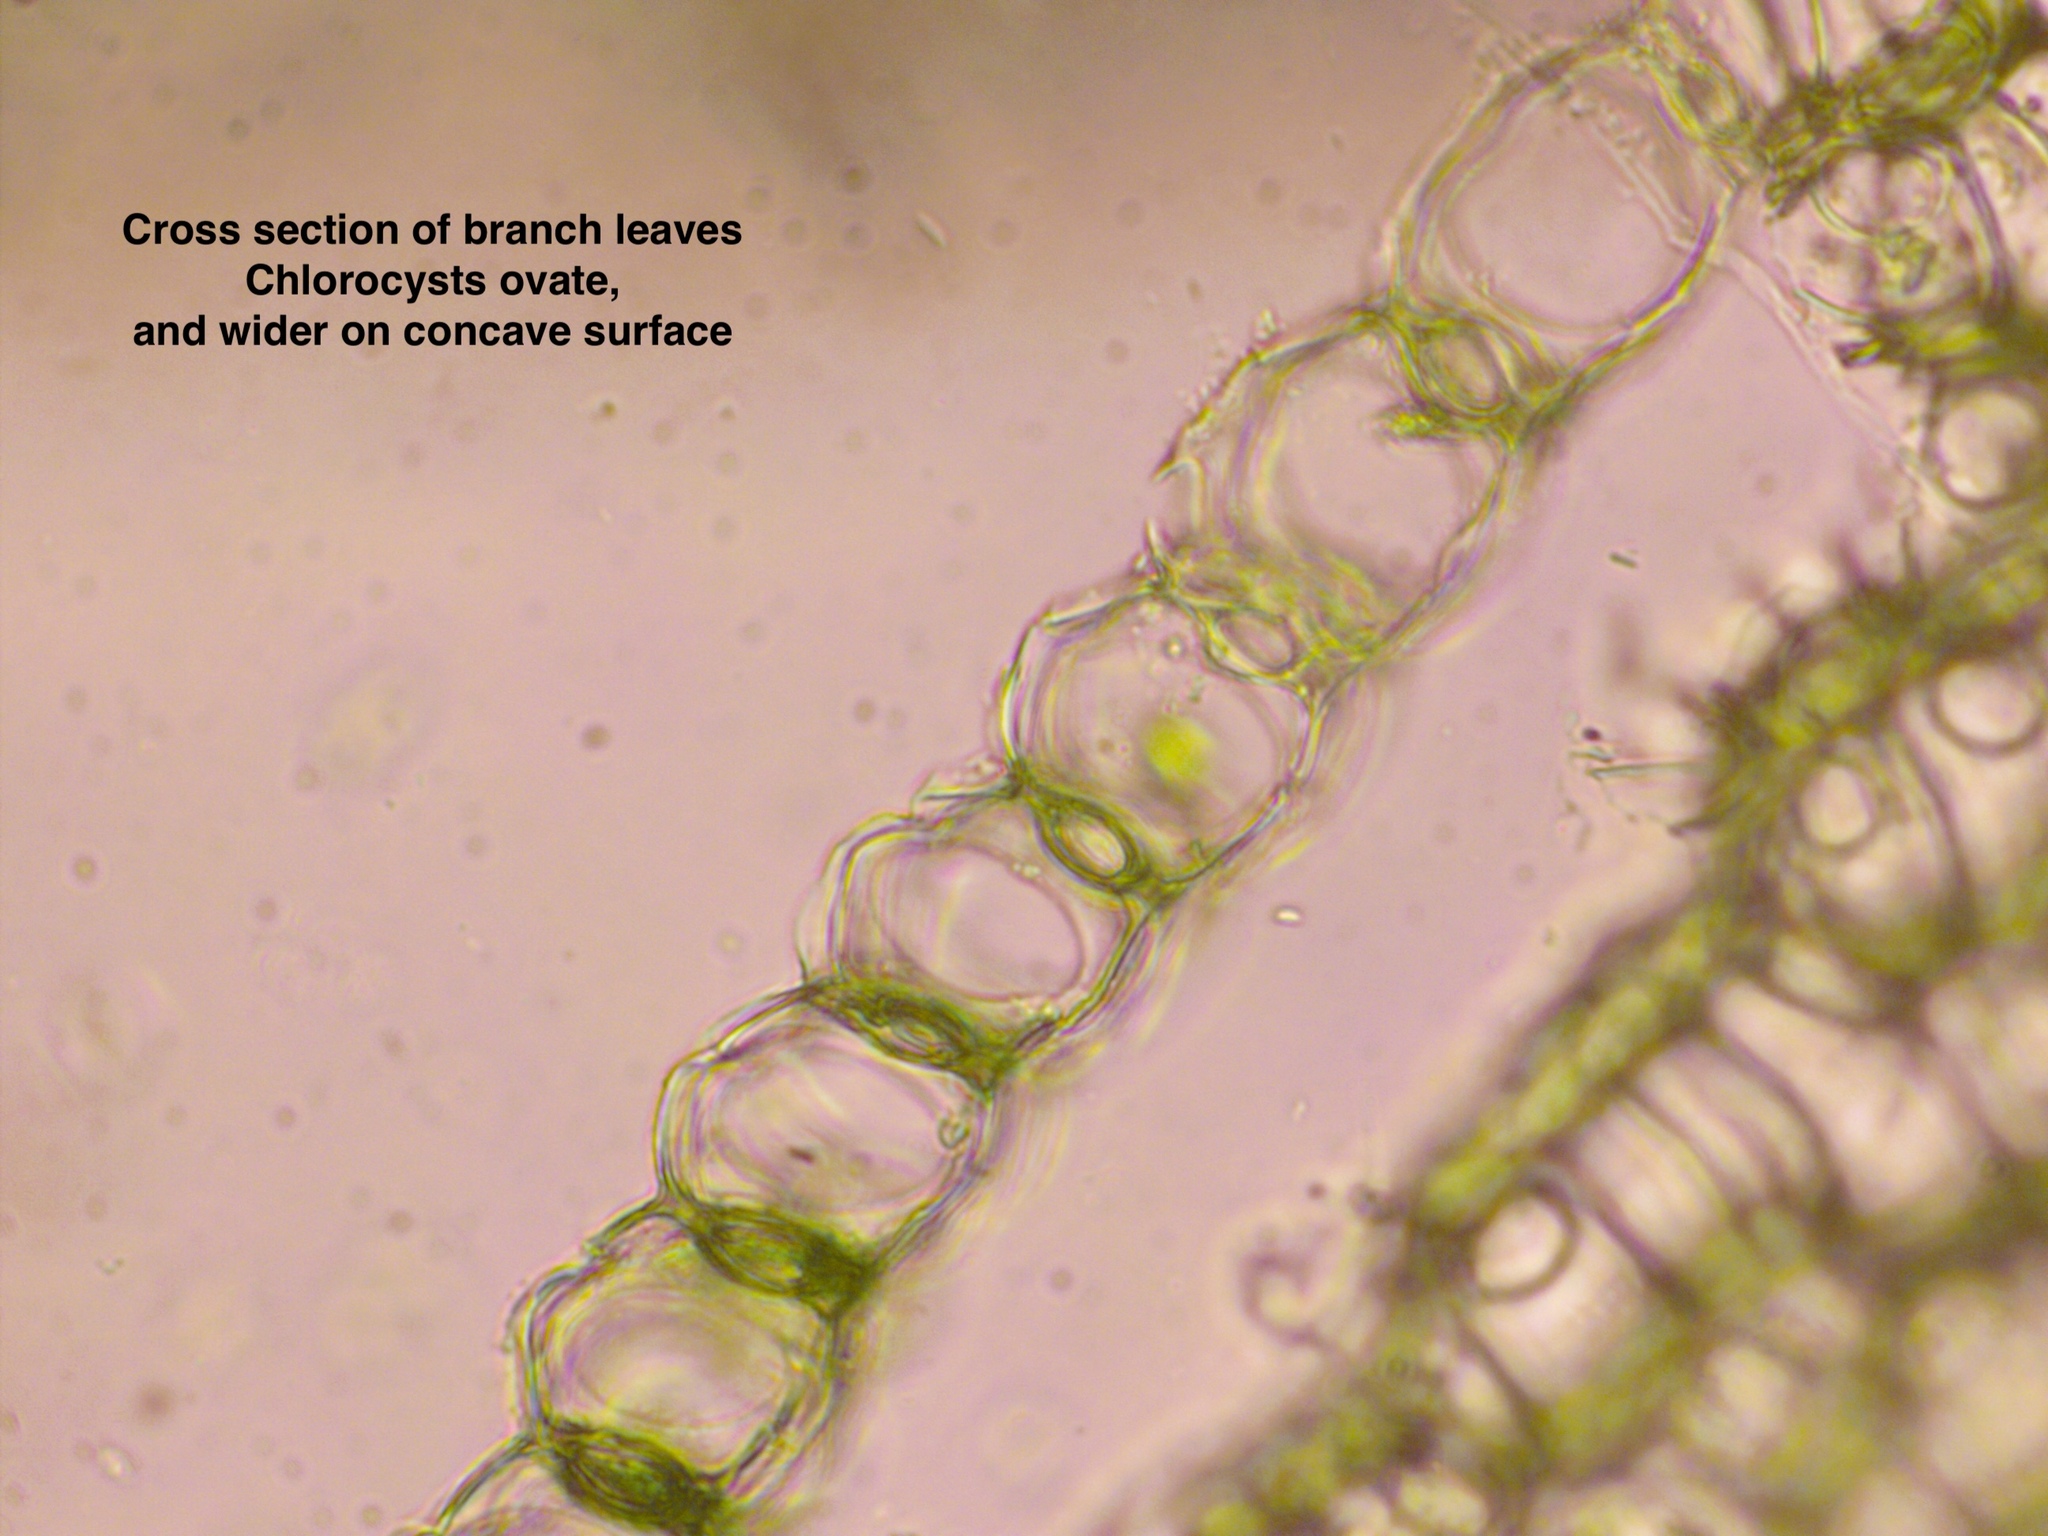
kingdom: Plantae
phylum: Bryophyta
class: Sphagnopsida
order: Sphagnales
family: Sphagnaceae
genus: Sphagnum
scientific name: Sphagnum palustre
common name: Blunt-leaved bog-moss
